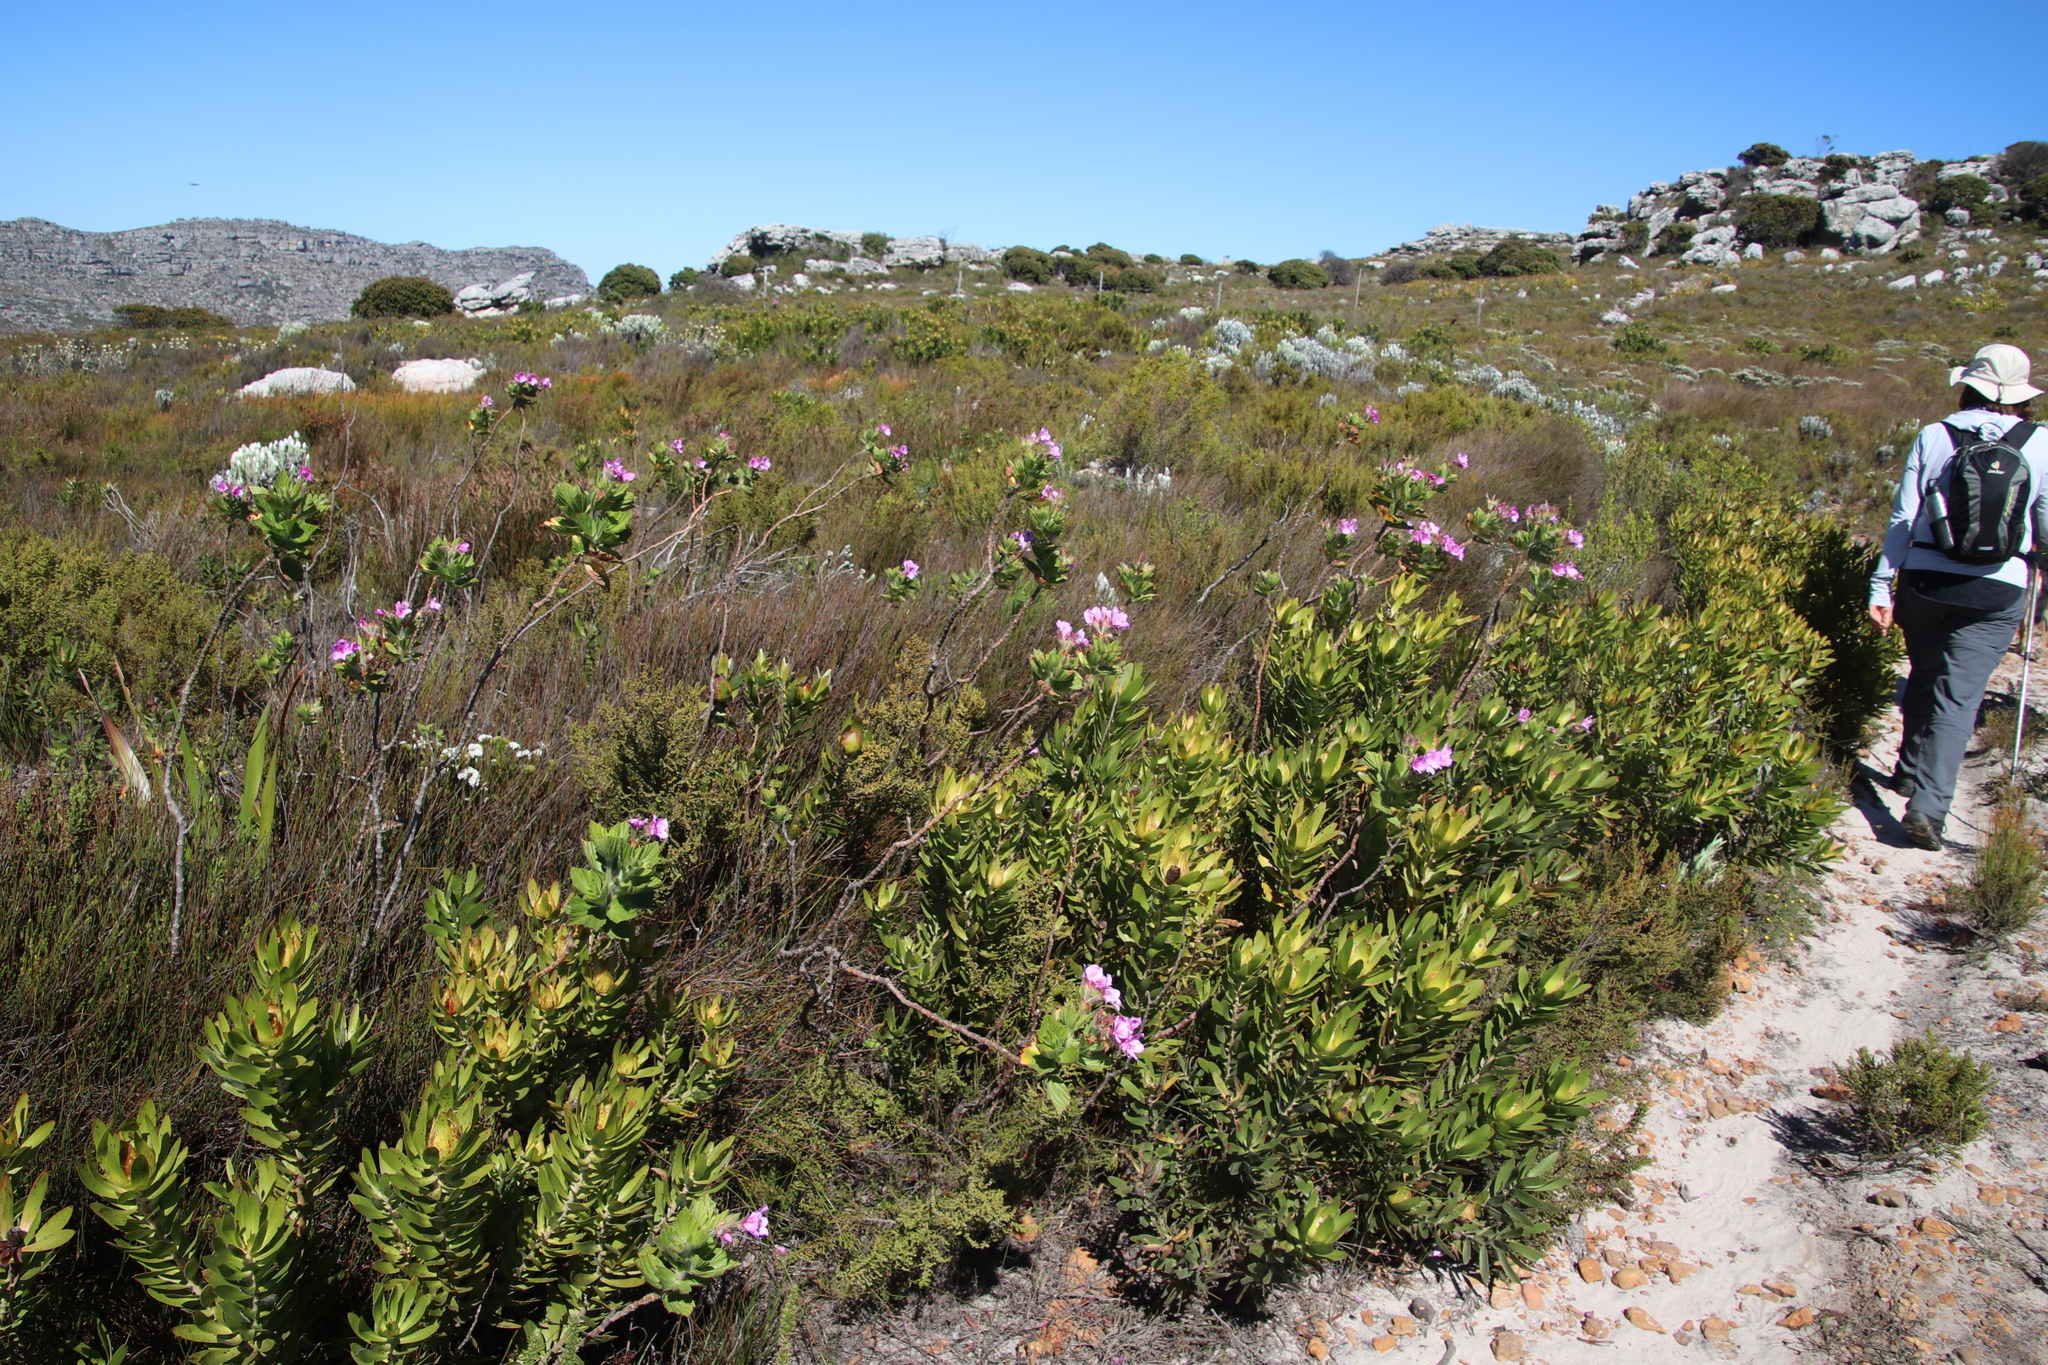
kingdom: Plantae
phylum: Tracheophyta
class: Magnoliopsida
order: Proteales
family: Proteaceae
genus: Leucadendron
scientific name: Leucadendron laureolum
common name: Golden sunshinebush
